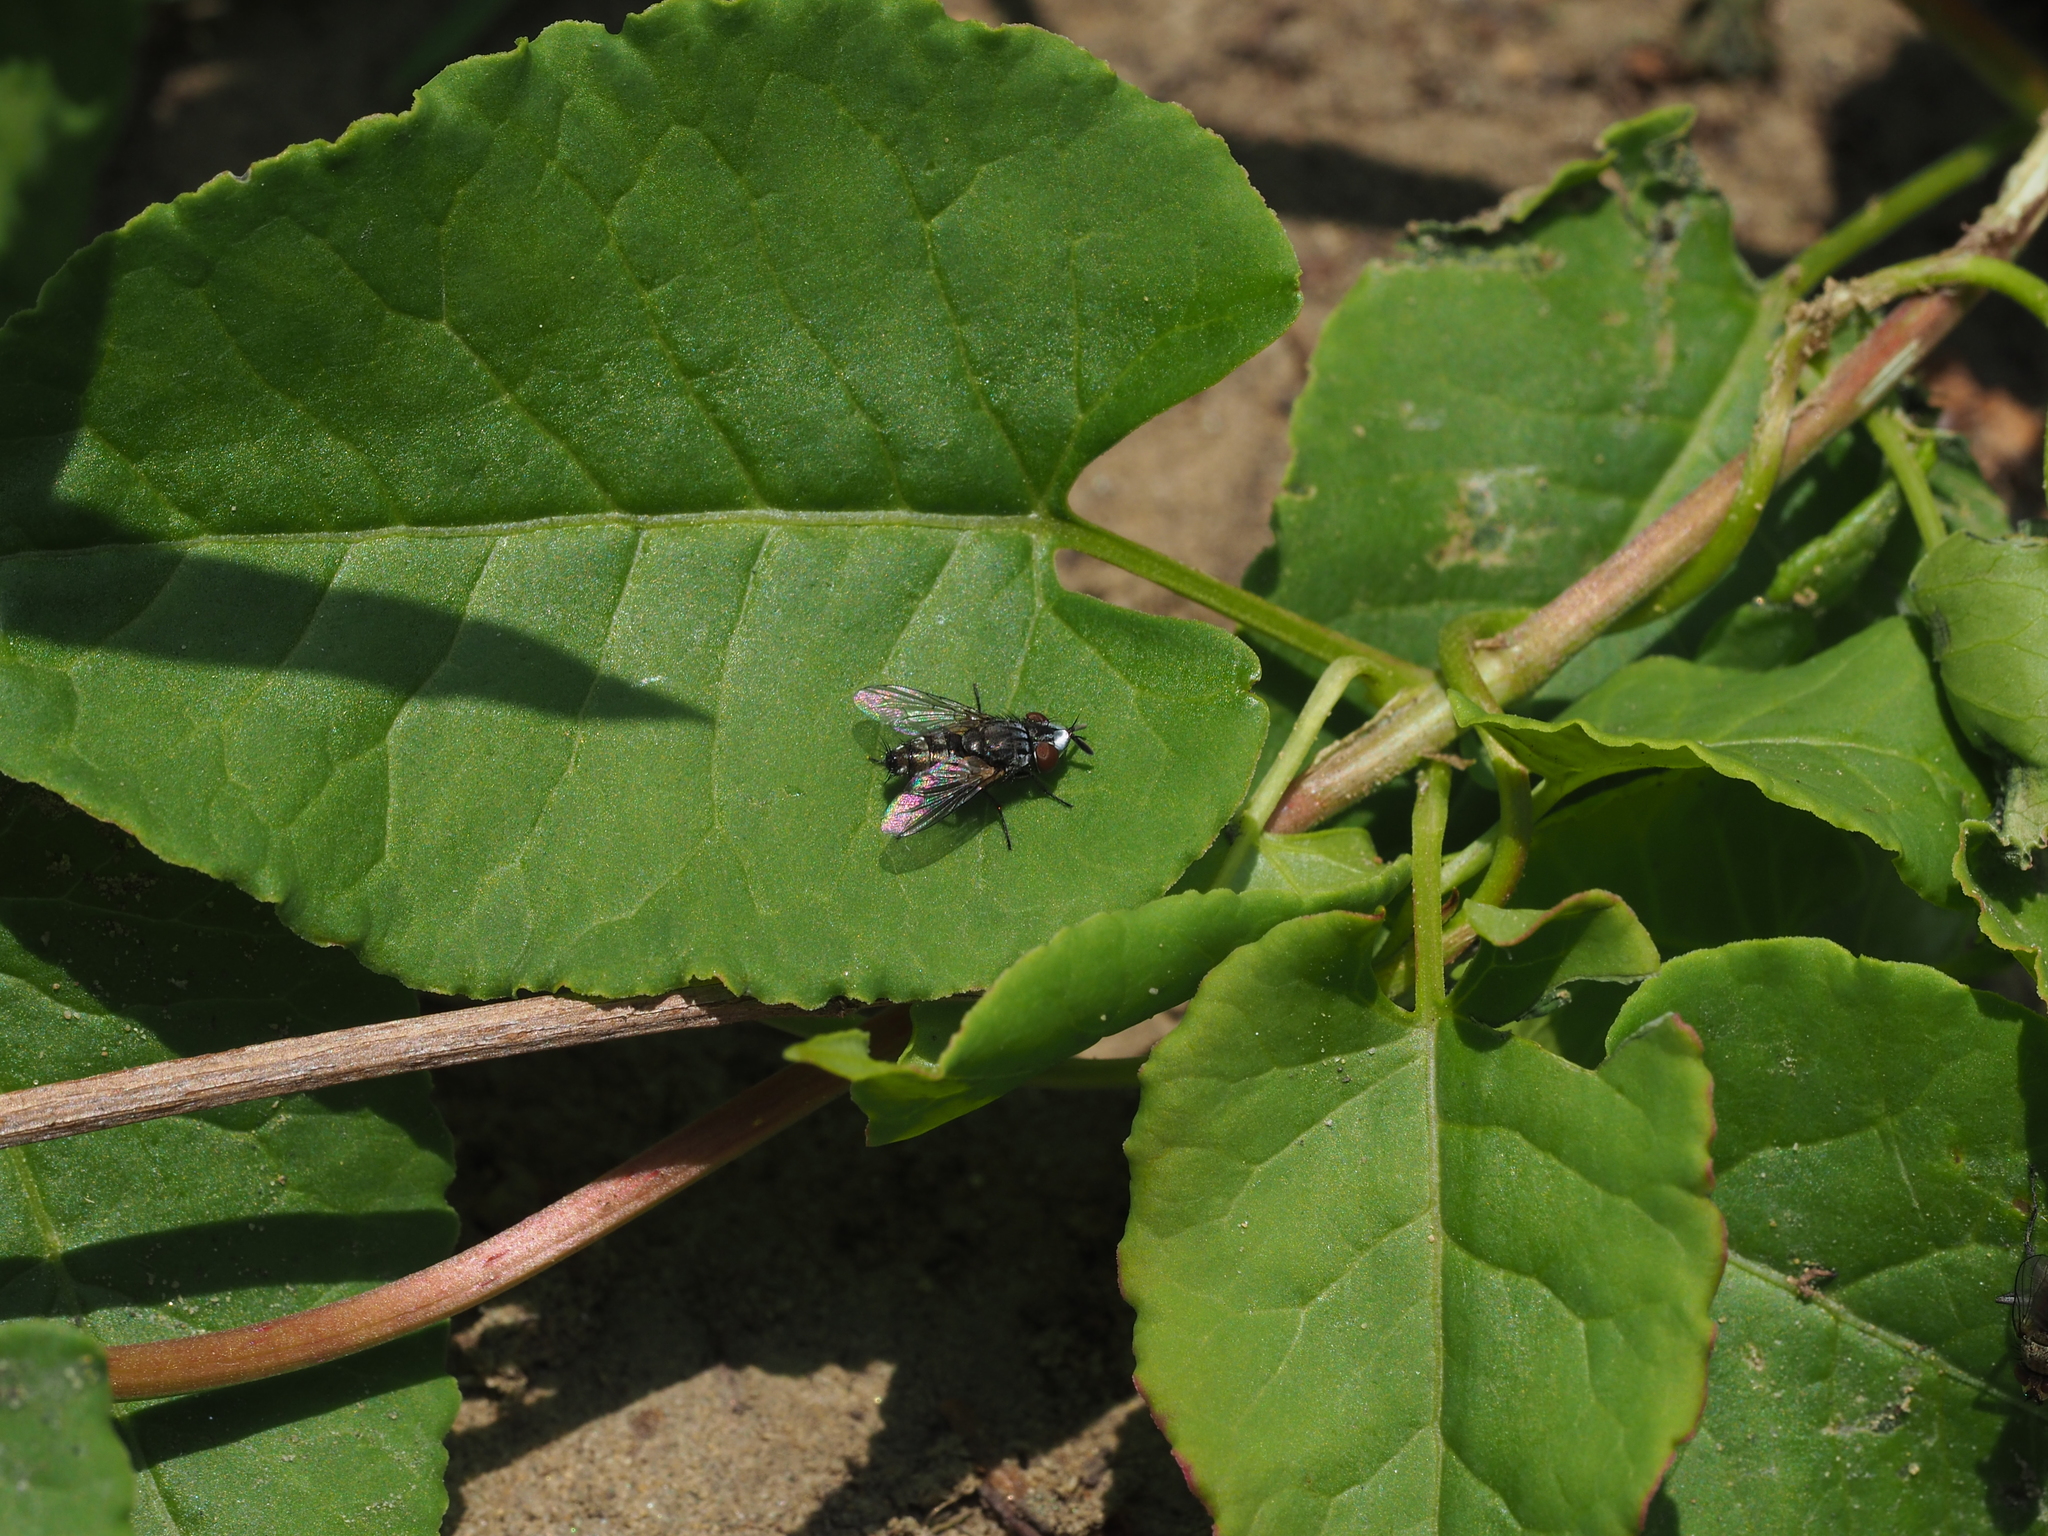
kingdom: Animalia
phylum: Arthropoda
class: Insecta
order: Diptera
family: Sarcophagidae
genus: Metopia
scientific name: Metopia
